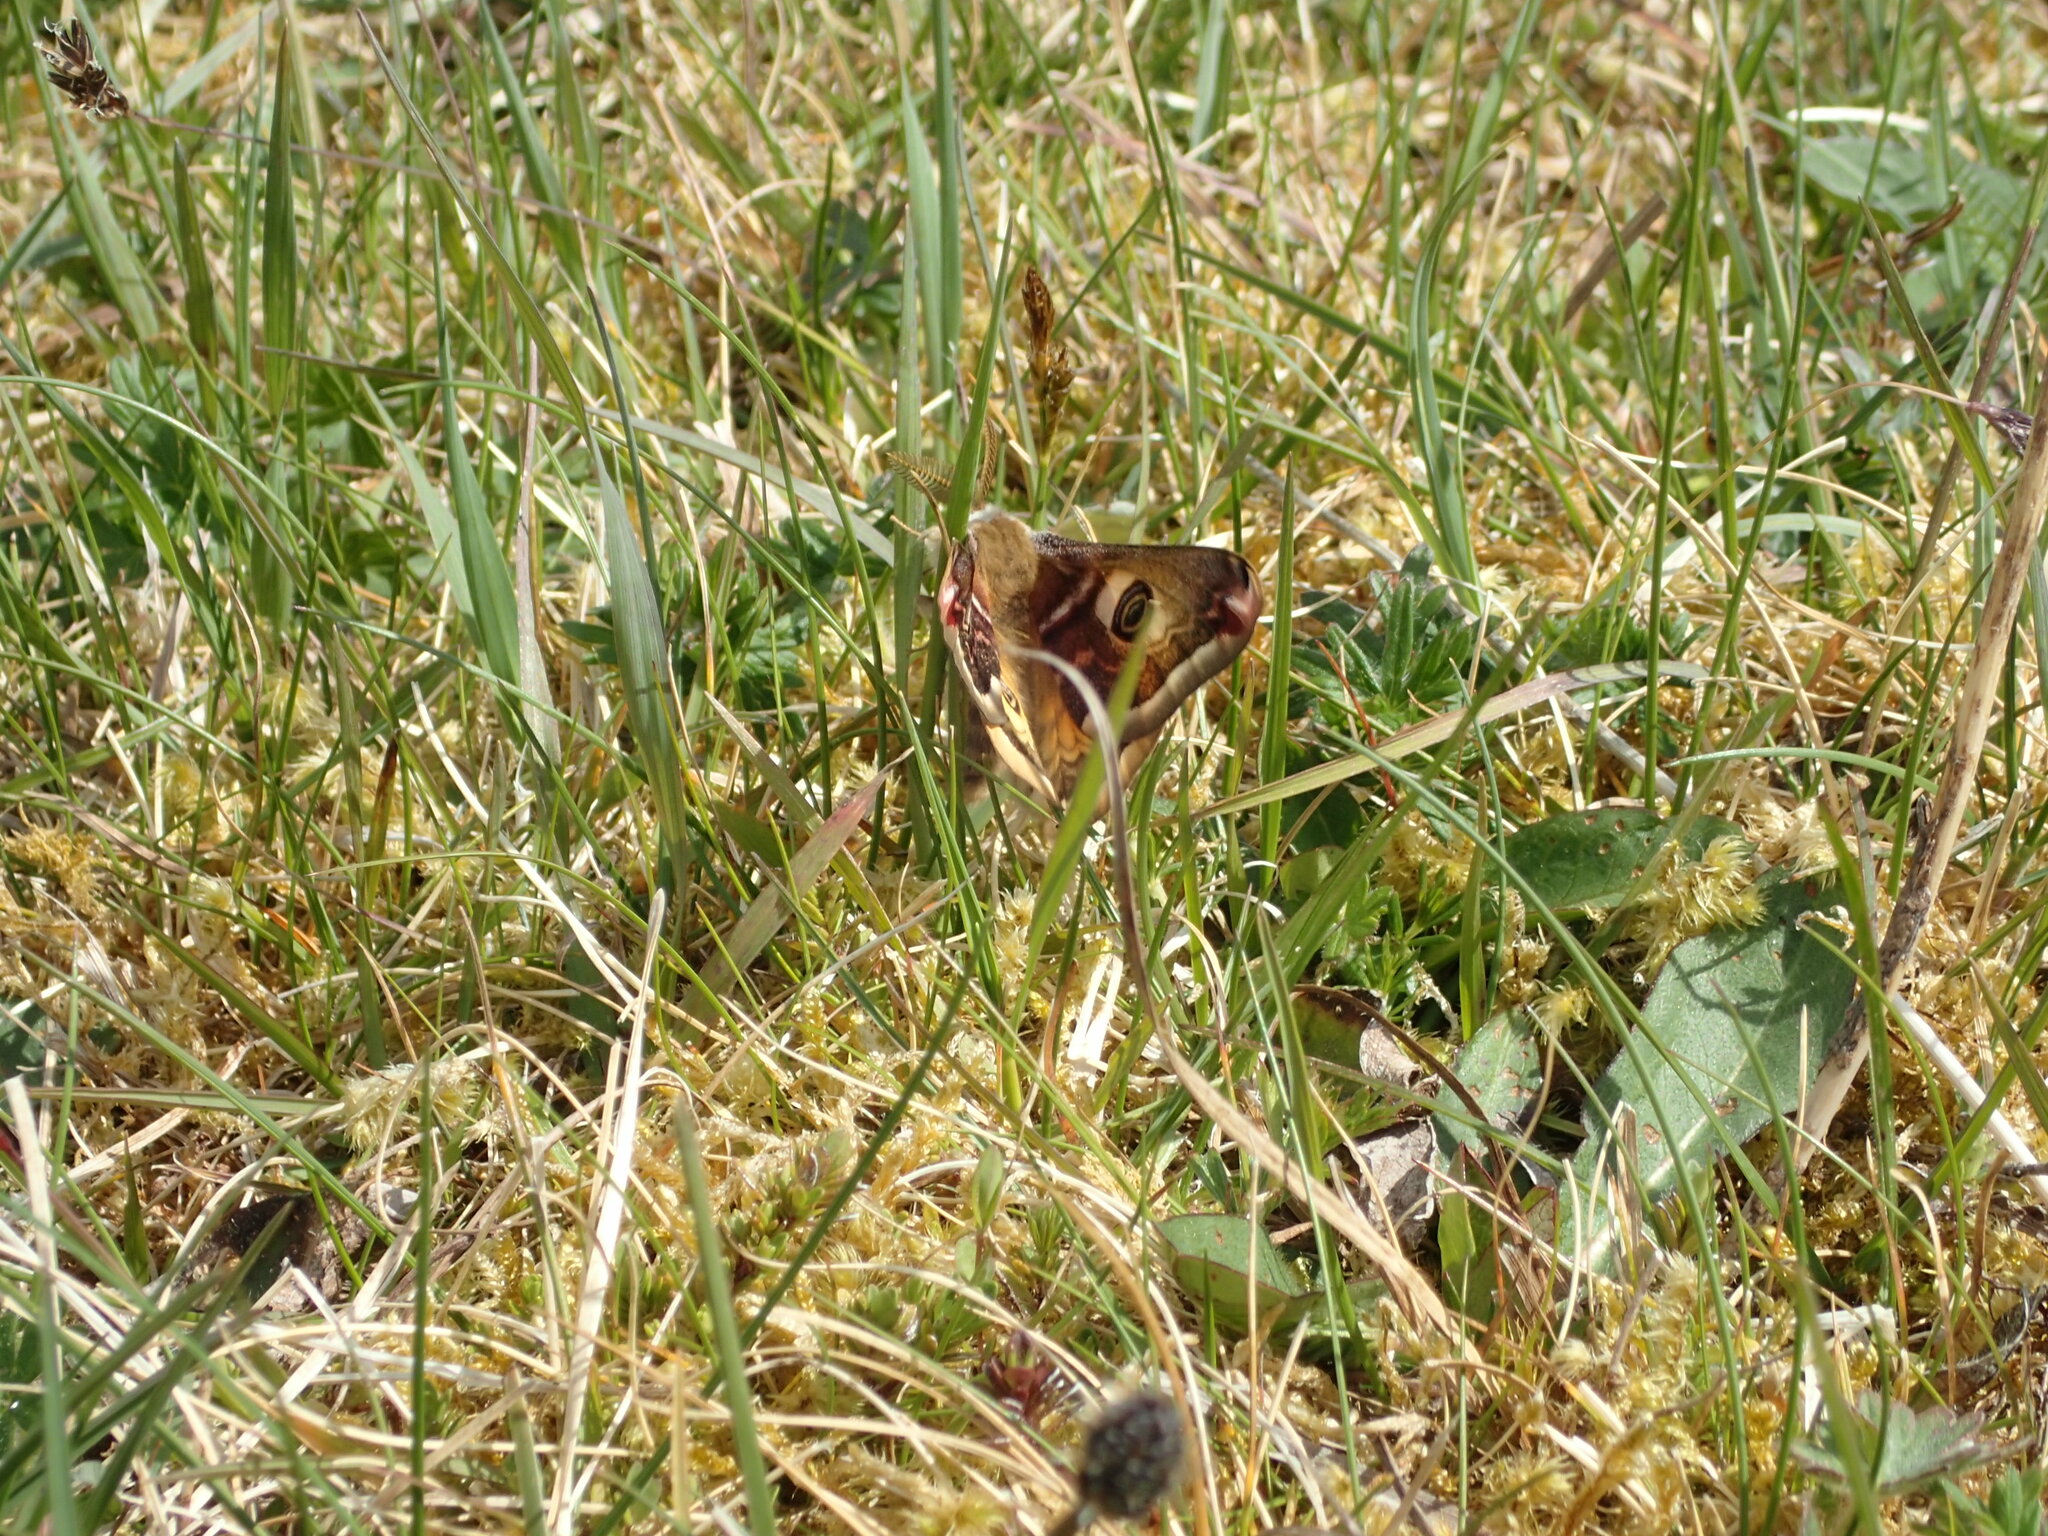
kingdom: Animalia
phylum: Arthropoda
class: Insecta
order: Lepidoptera
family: Saturniidae
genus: Saturnia
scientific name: Saturnia pavonia
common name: Emperor moth
